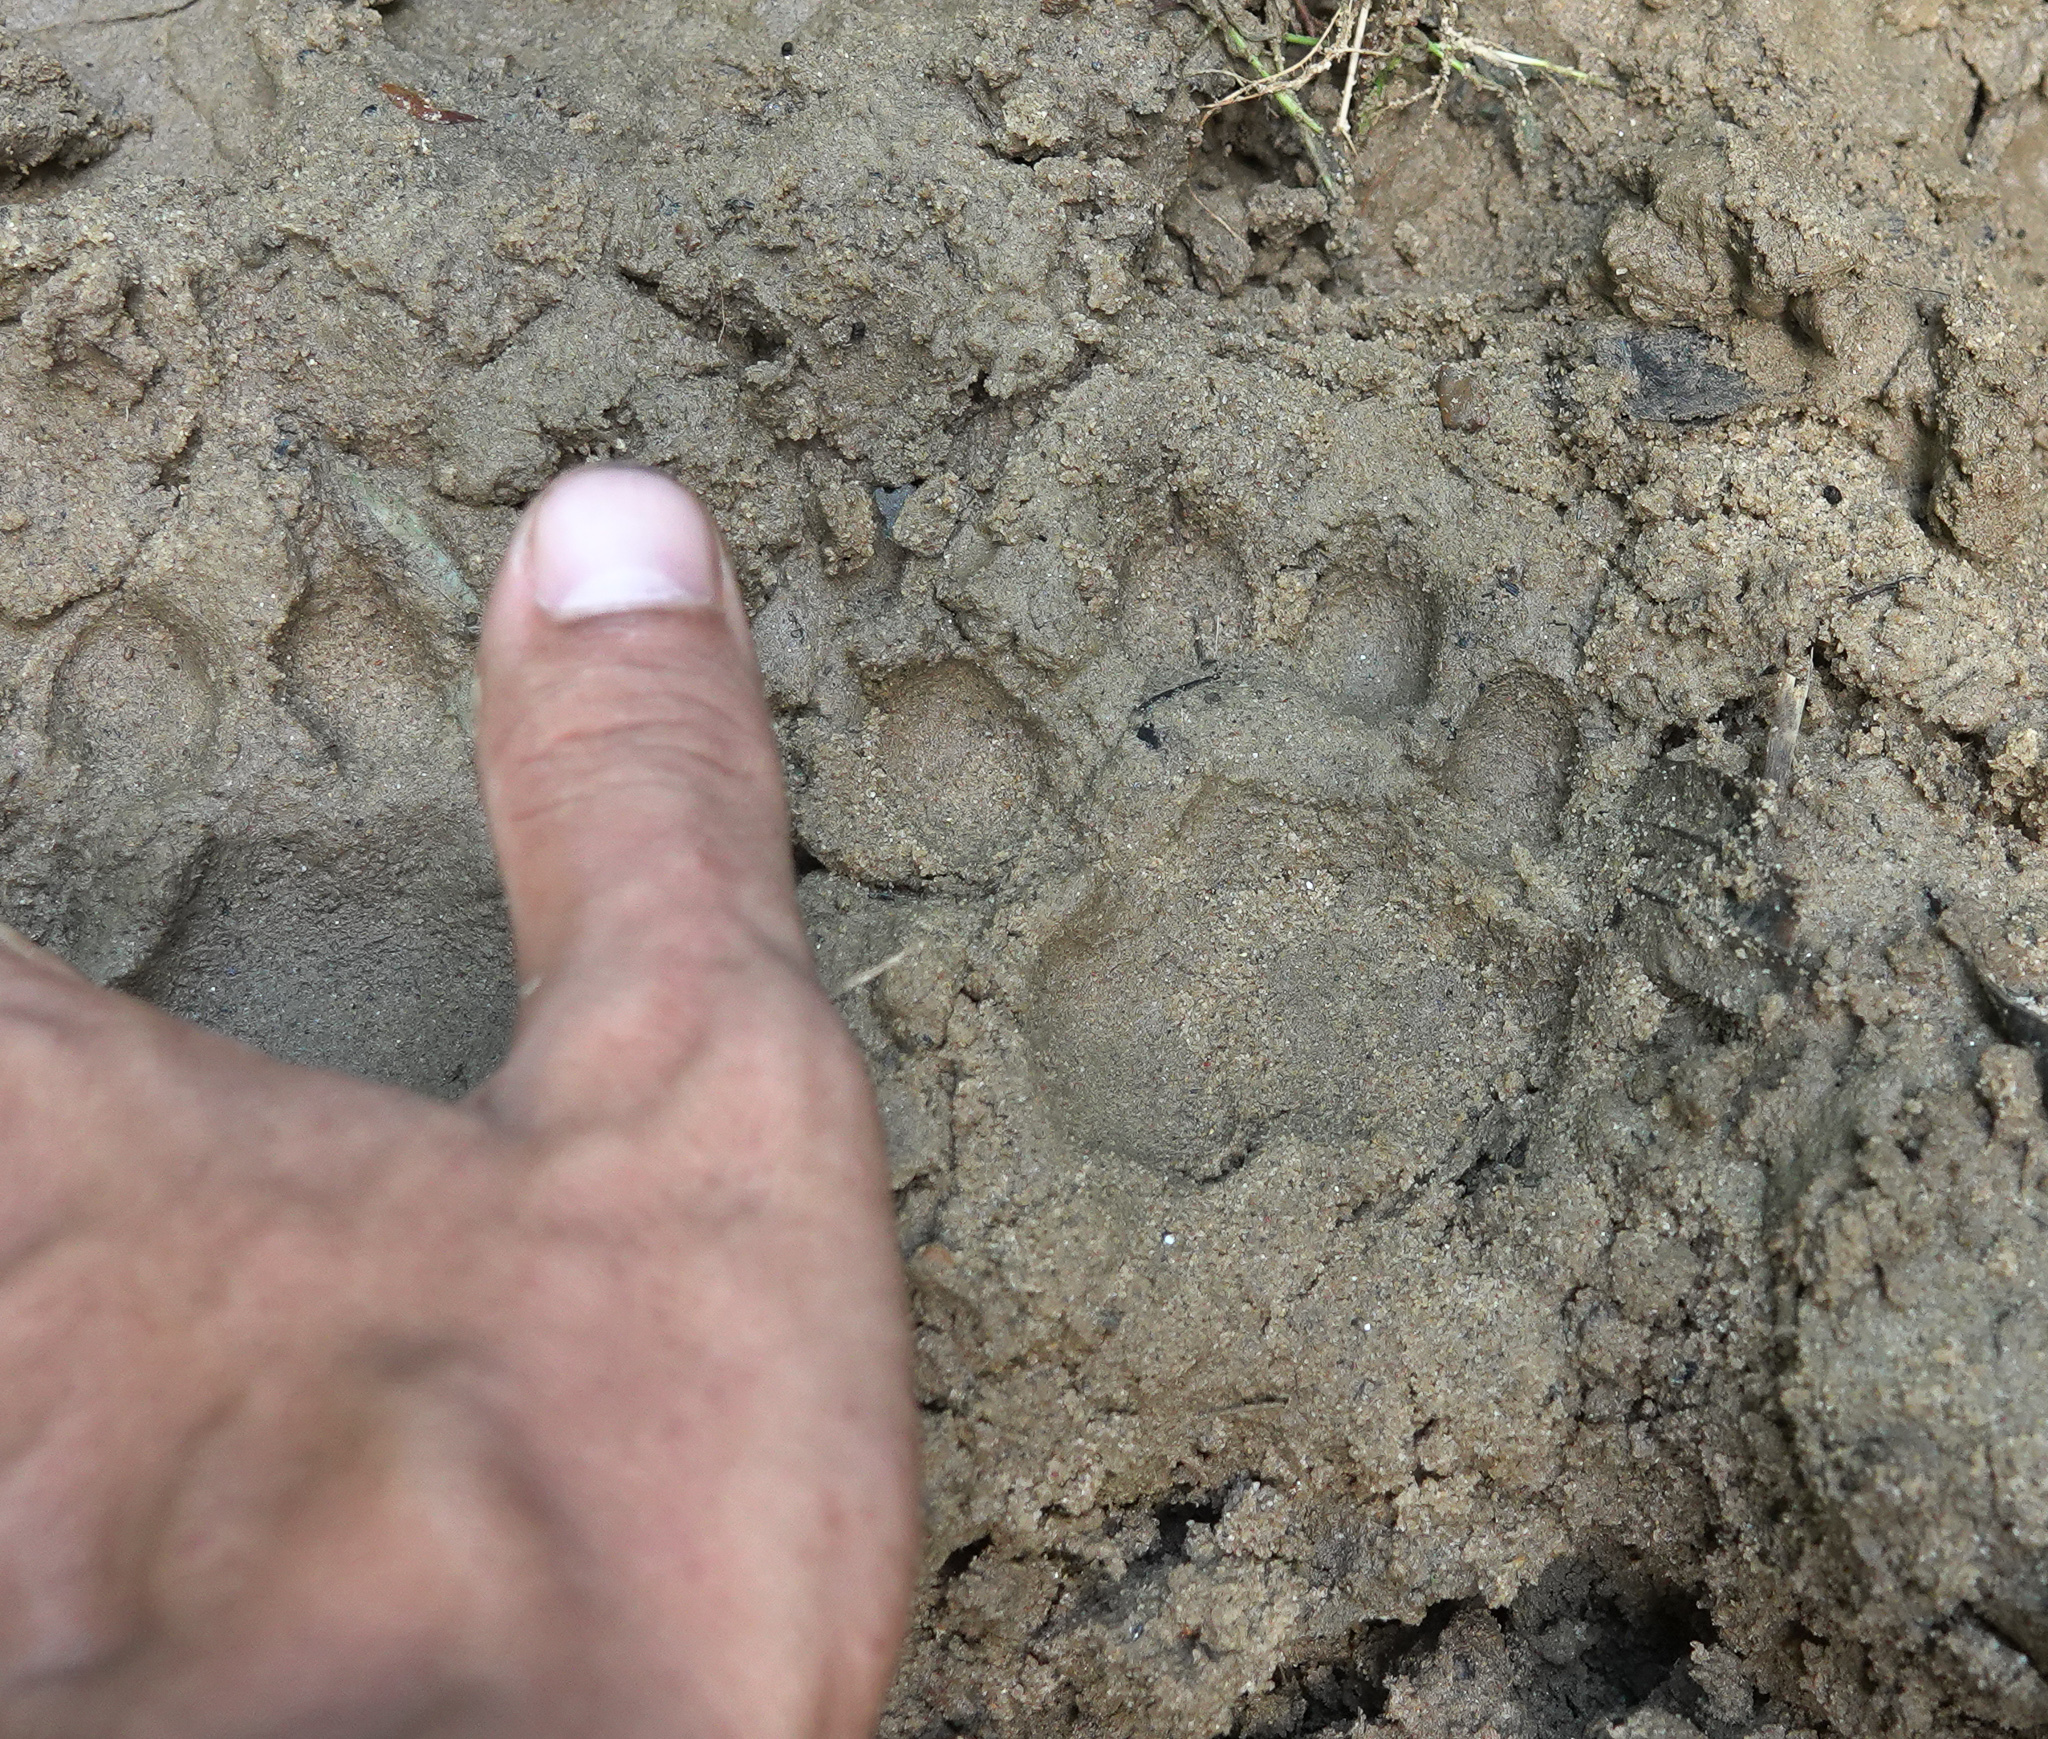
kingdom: Animalia
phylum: Chordata
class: Mammalia
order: Carnivora
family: Felidae
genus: Neofelis
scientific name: Neofelis nebulosa
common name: Clouded leopard
